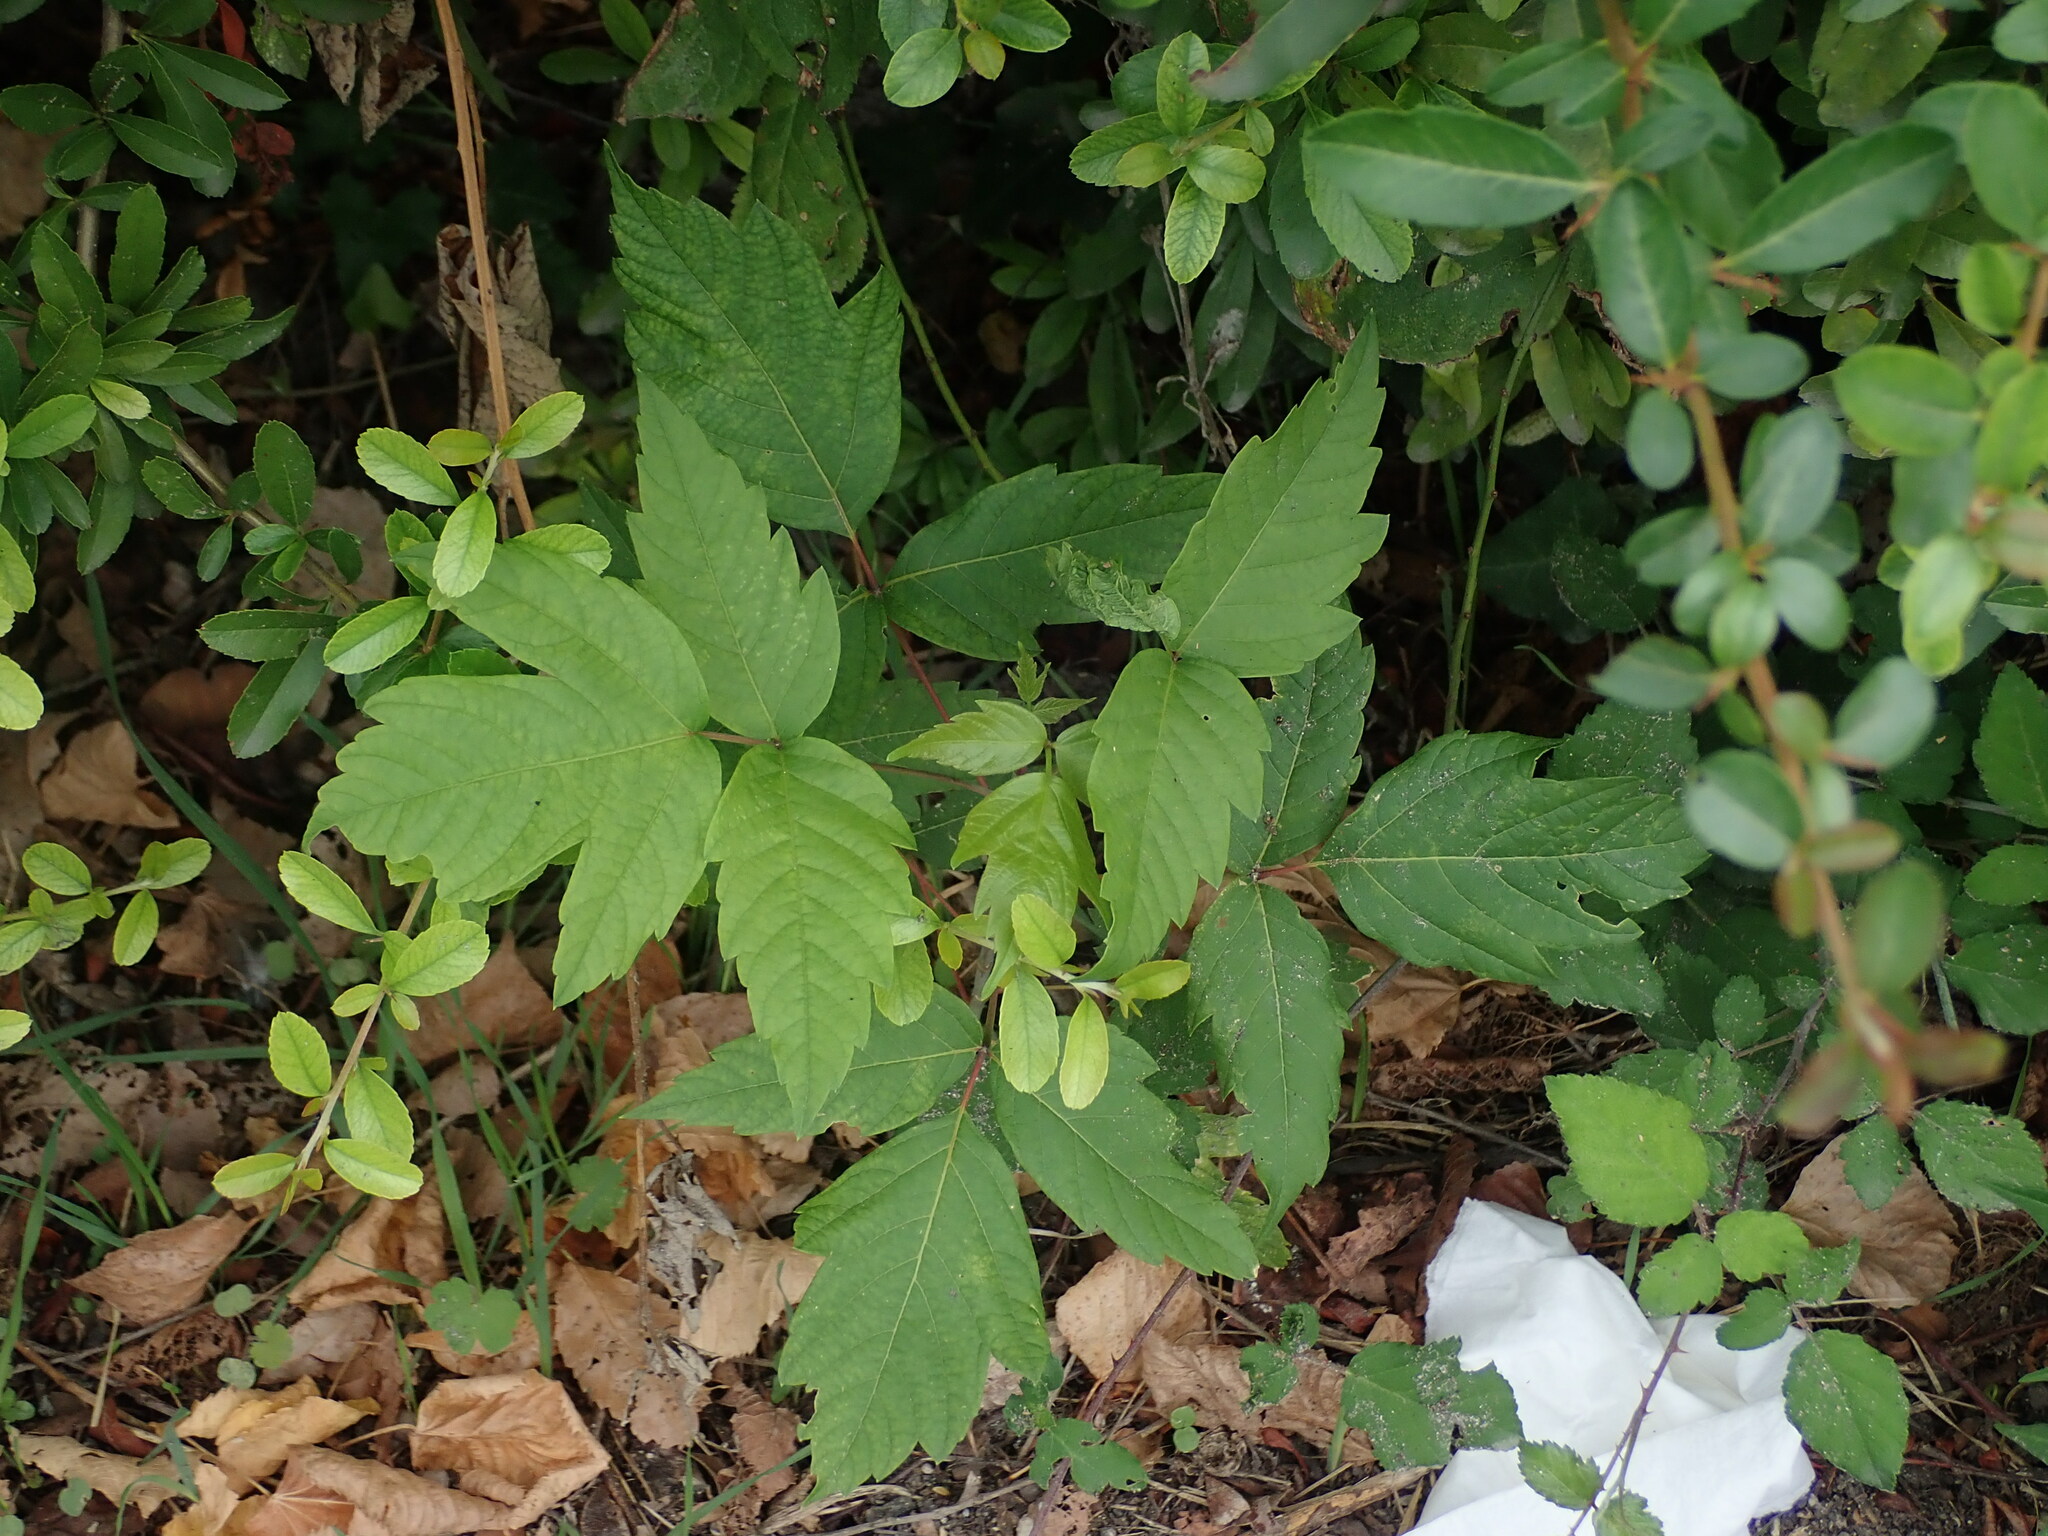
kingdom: Plantae
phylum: Tracheophyta
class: Magnoliopsida
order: Sapindales
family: Sapindaceae
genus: Acer
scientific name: Acer negundo
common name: Ashleaf maple
